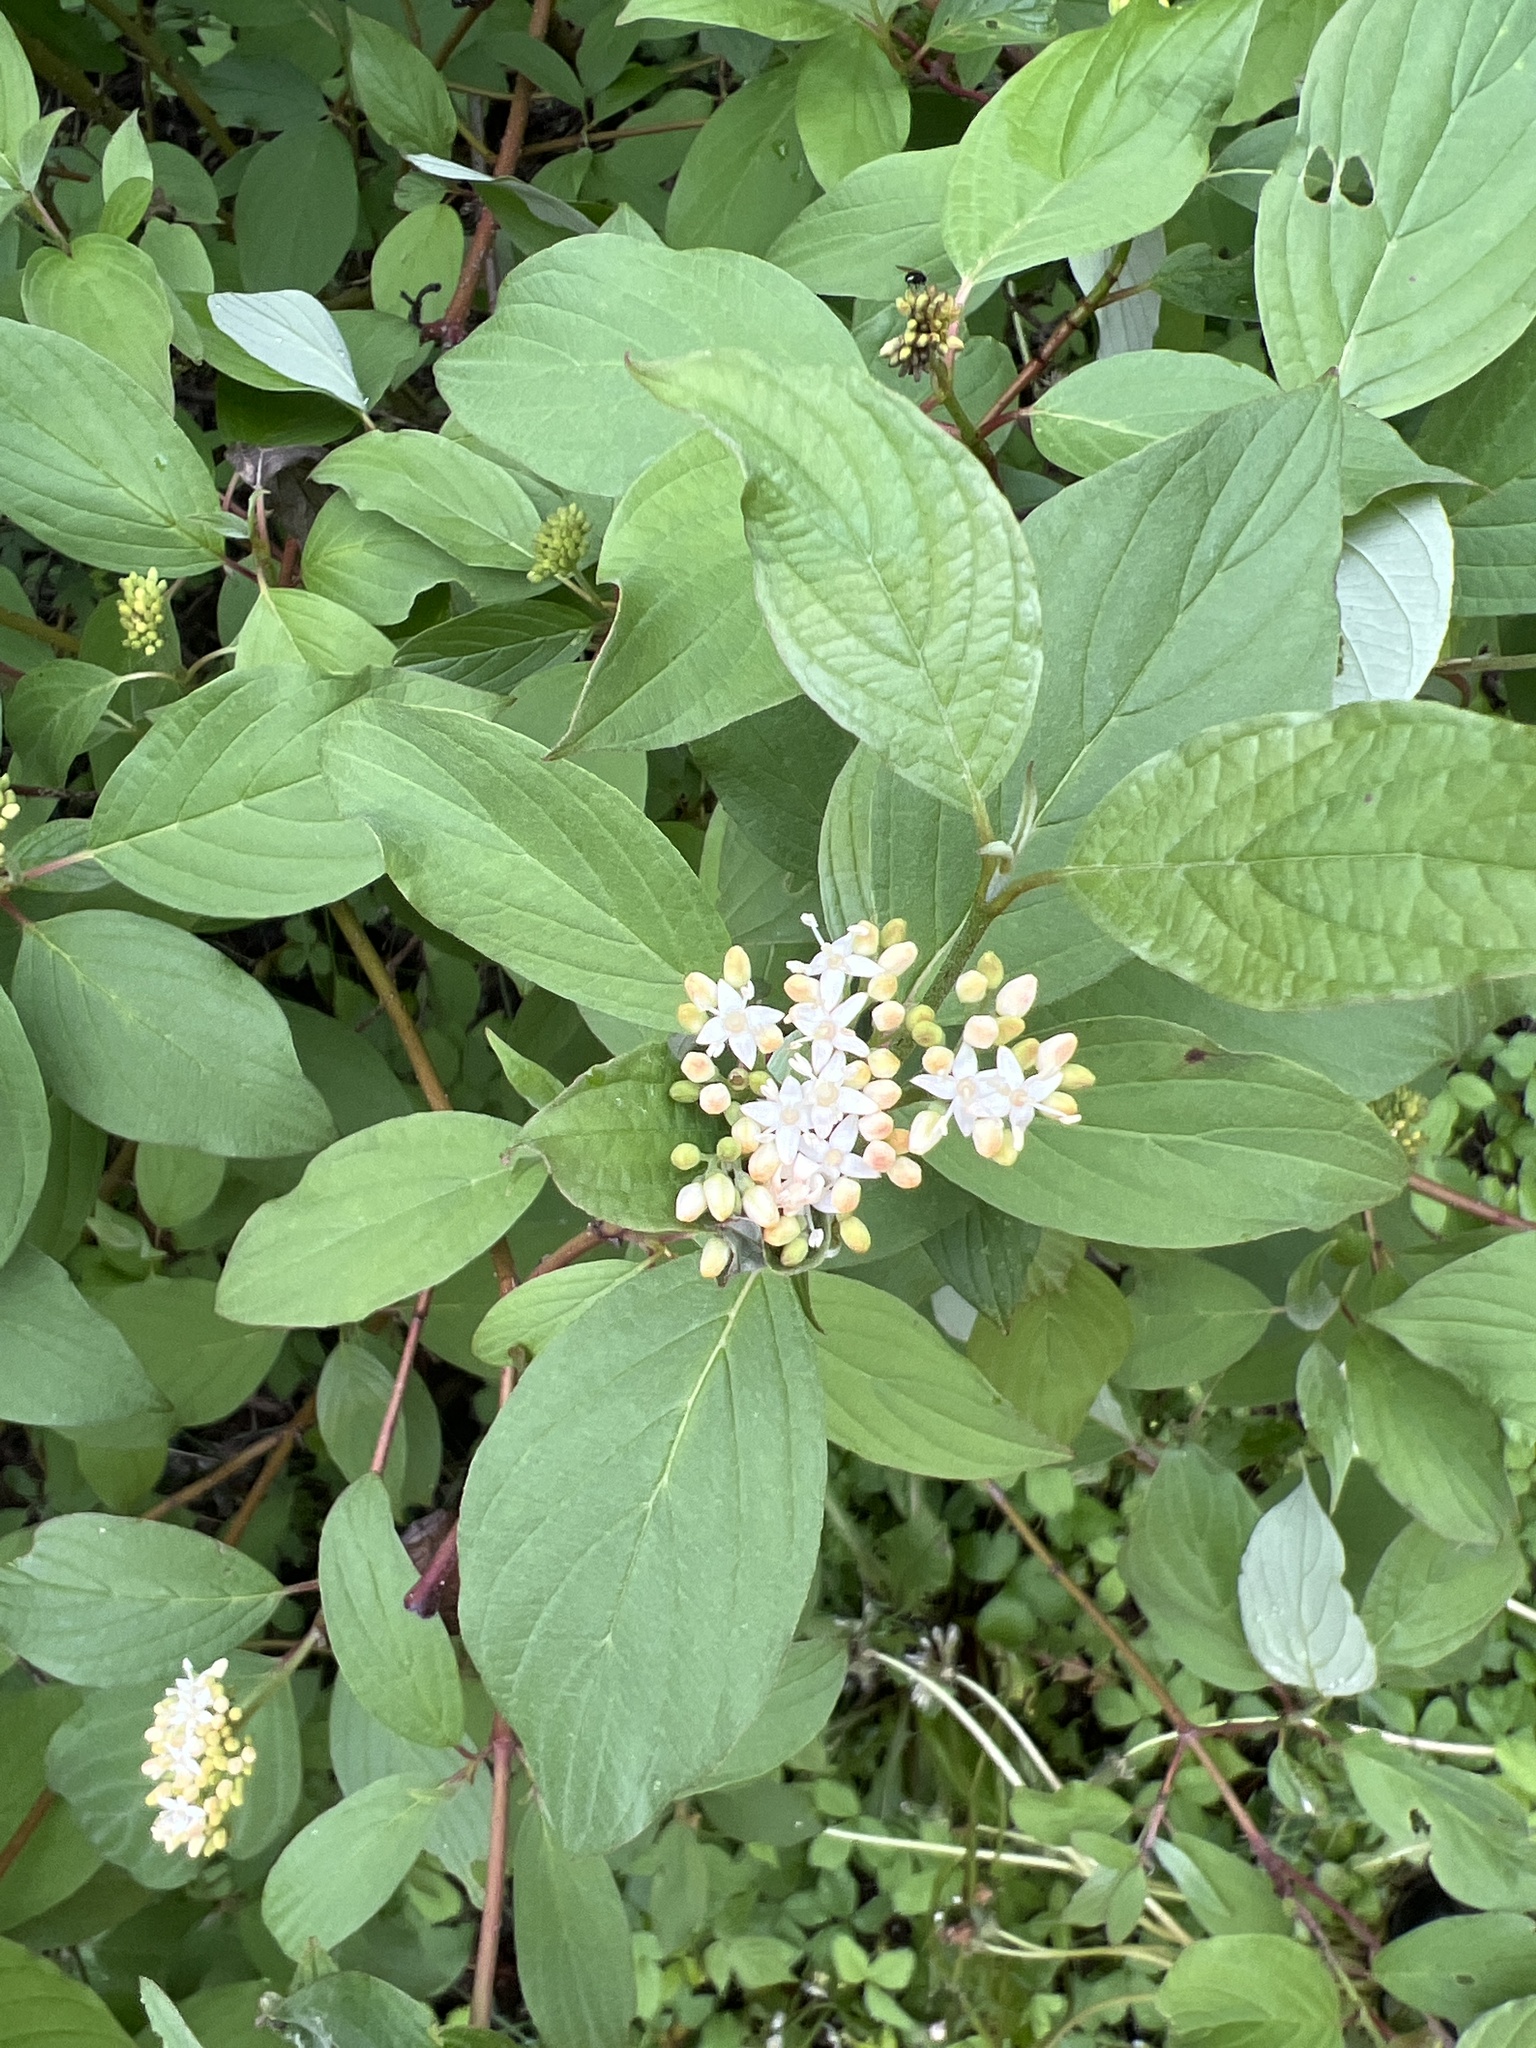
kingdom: Plantae
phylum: Tracheophyta
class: Magnoliopsida
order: Cornales
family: Cornaceae
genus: Cornus
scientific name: Cornus sericea
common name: Red-osier dogwood
